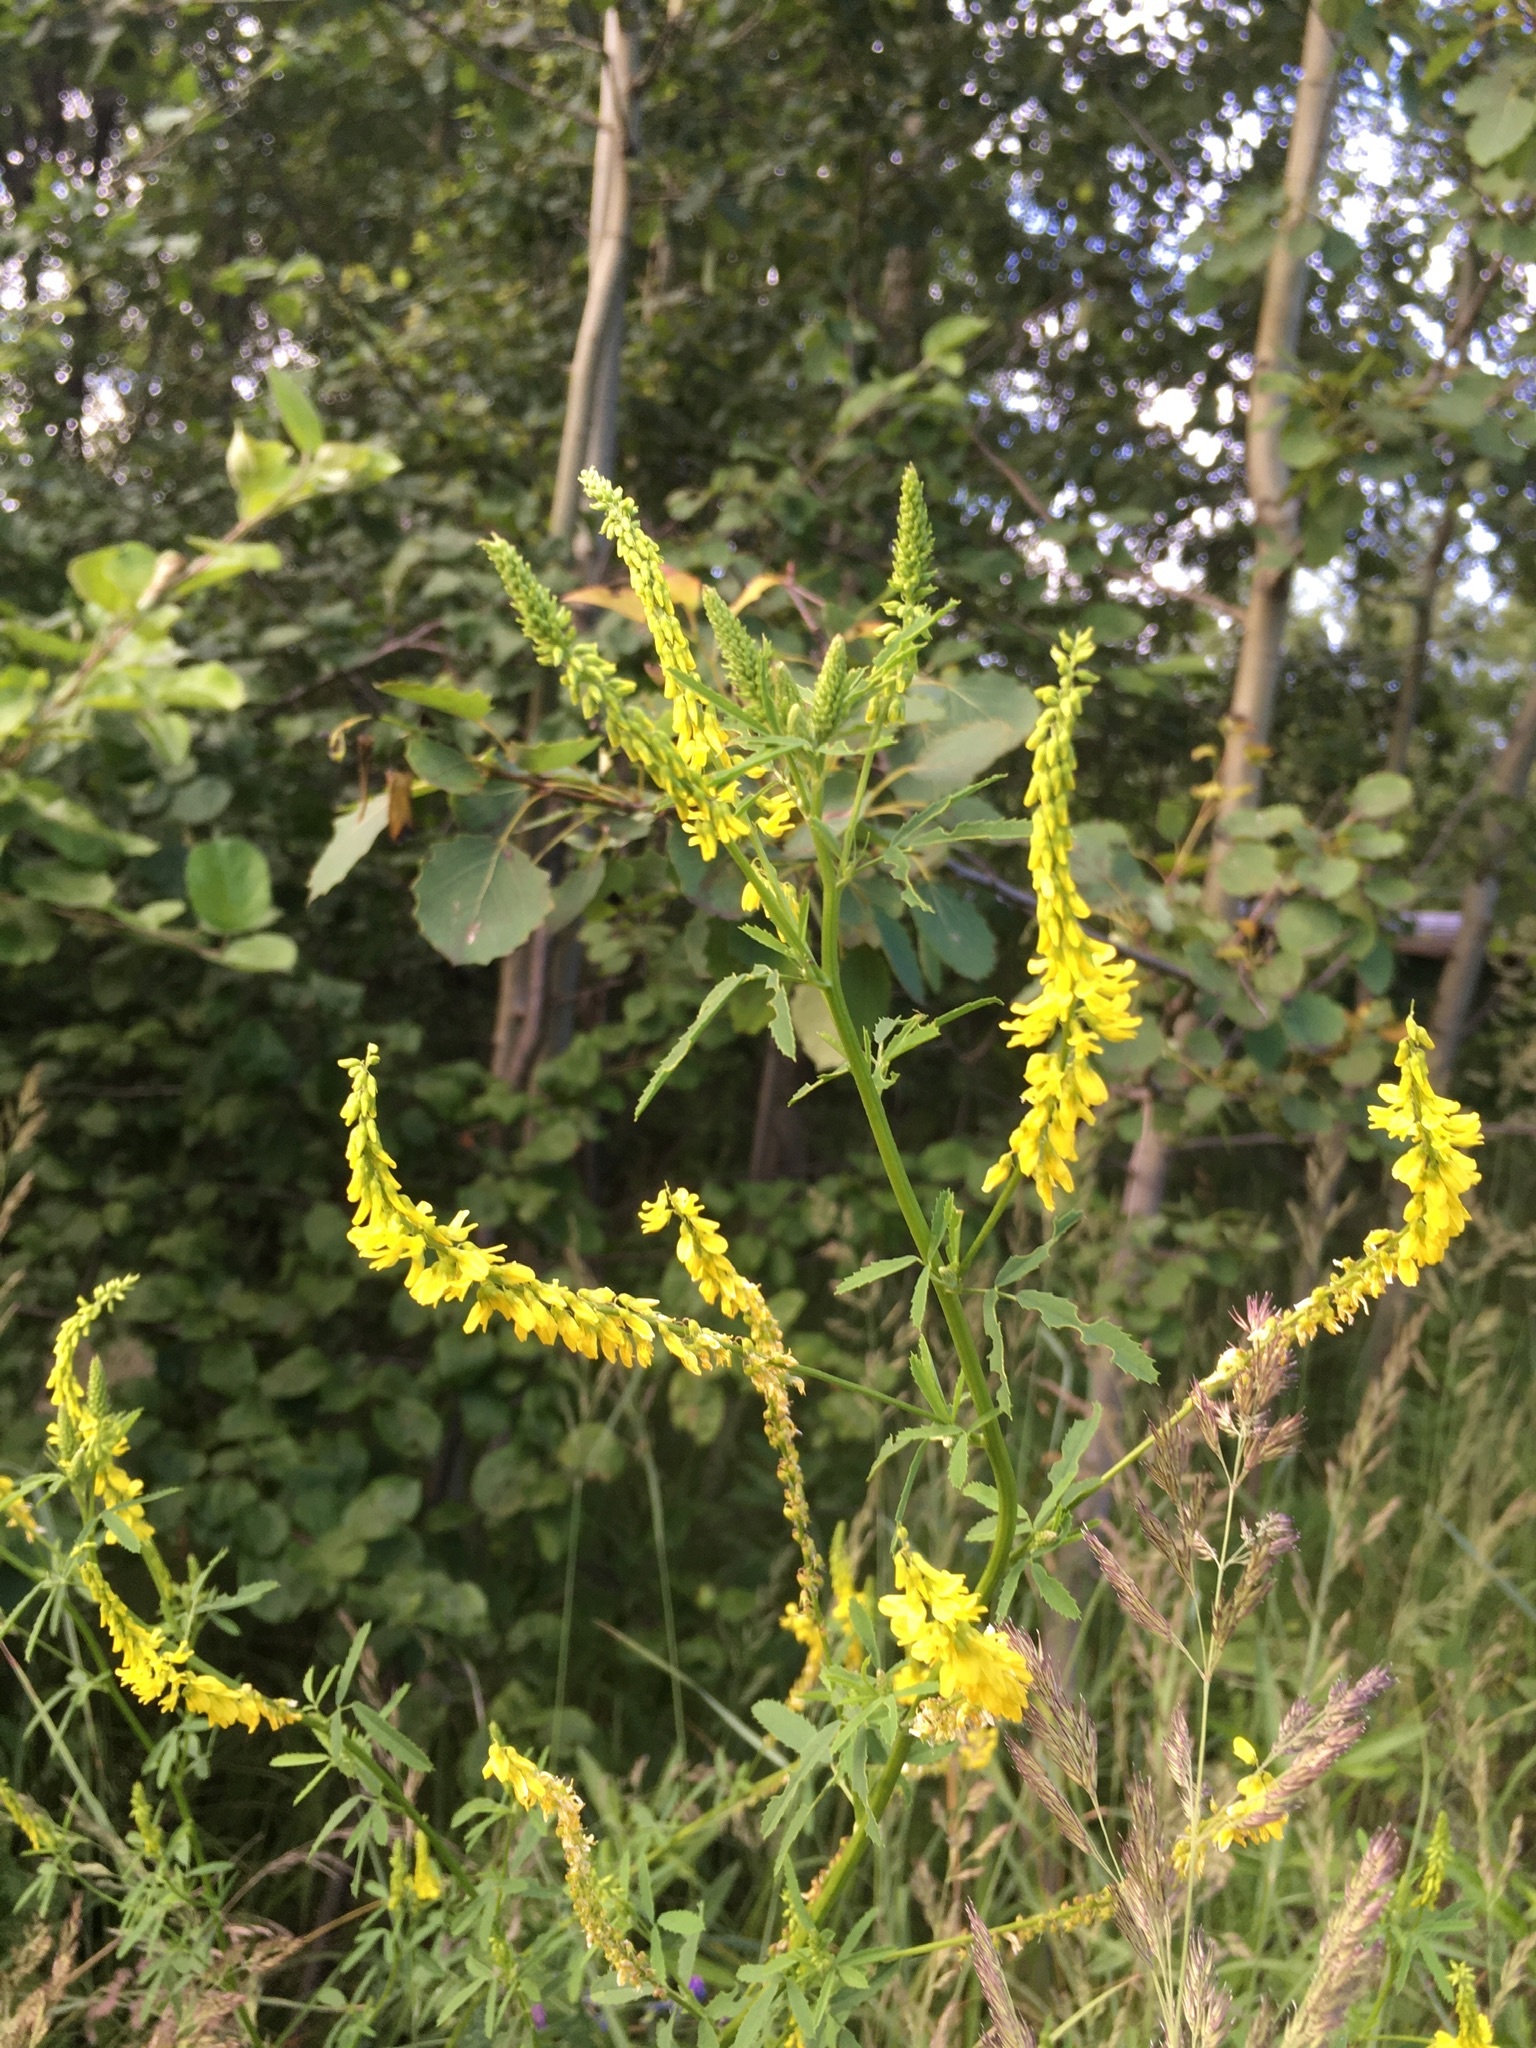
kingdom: Plantae
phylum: Tracheophyta
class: Magnoliopsida
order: Fabales
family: Fabaceae
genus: Melilotus
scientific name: Melilotus officinalis
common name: Sweetclover
